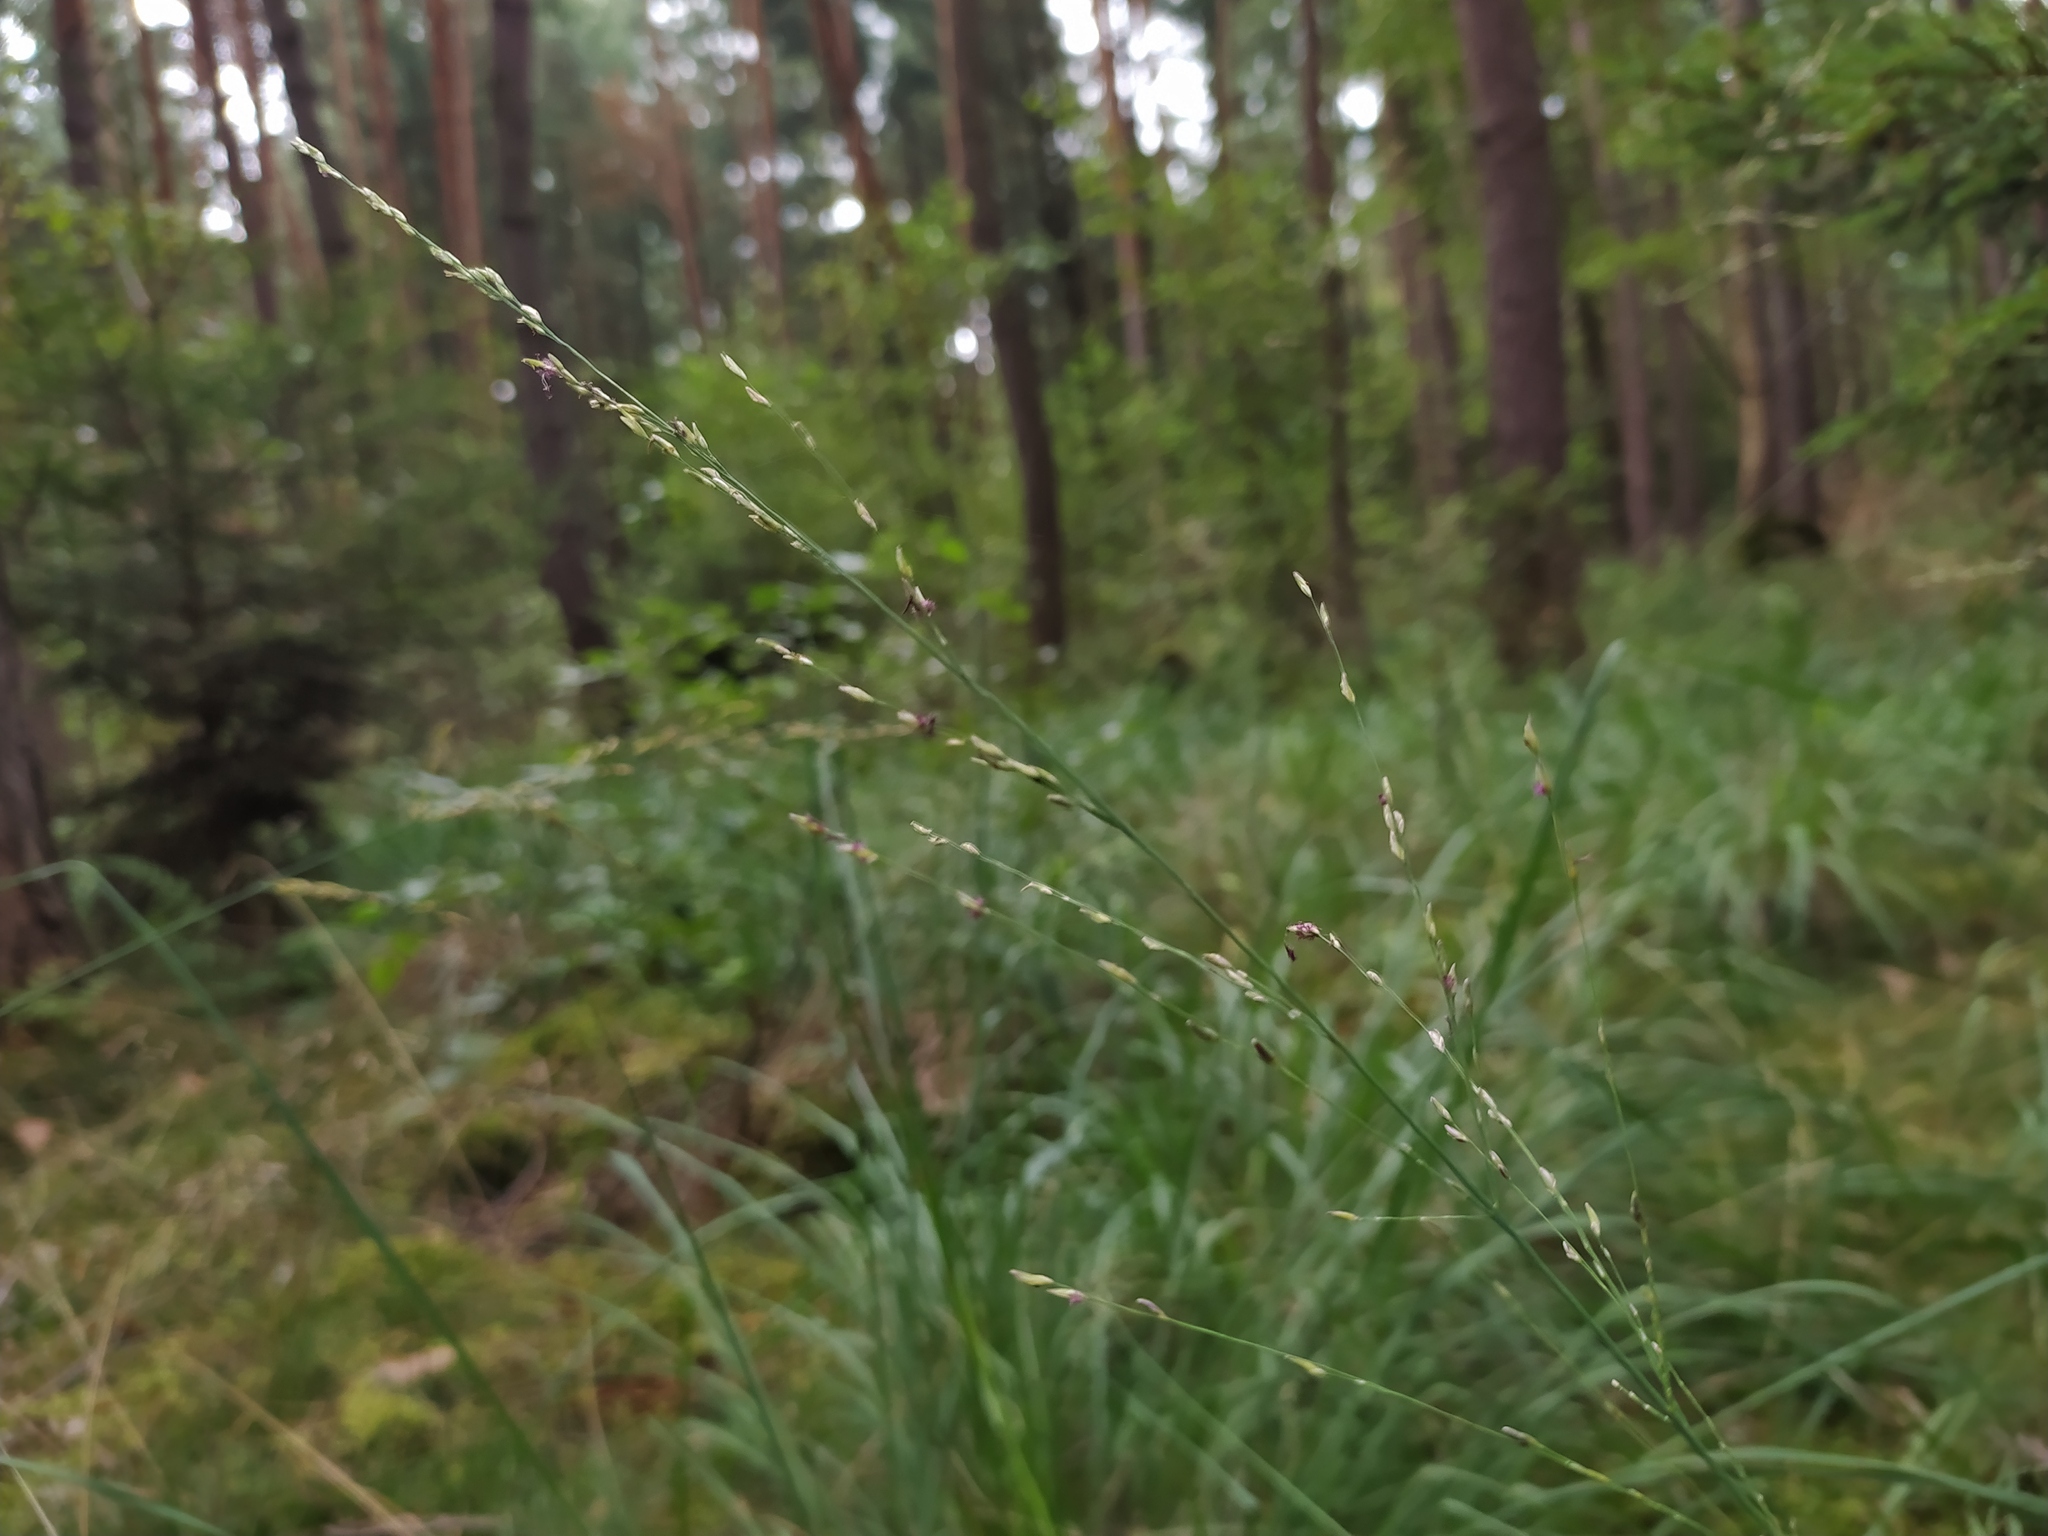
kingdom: Plantae
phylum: Tracheophyta
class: Liliopsida
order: Poales
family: Poaceae
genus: Molinia
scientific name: Molinia caerulea
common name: Purple moor-grass
